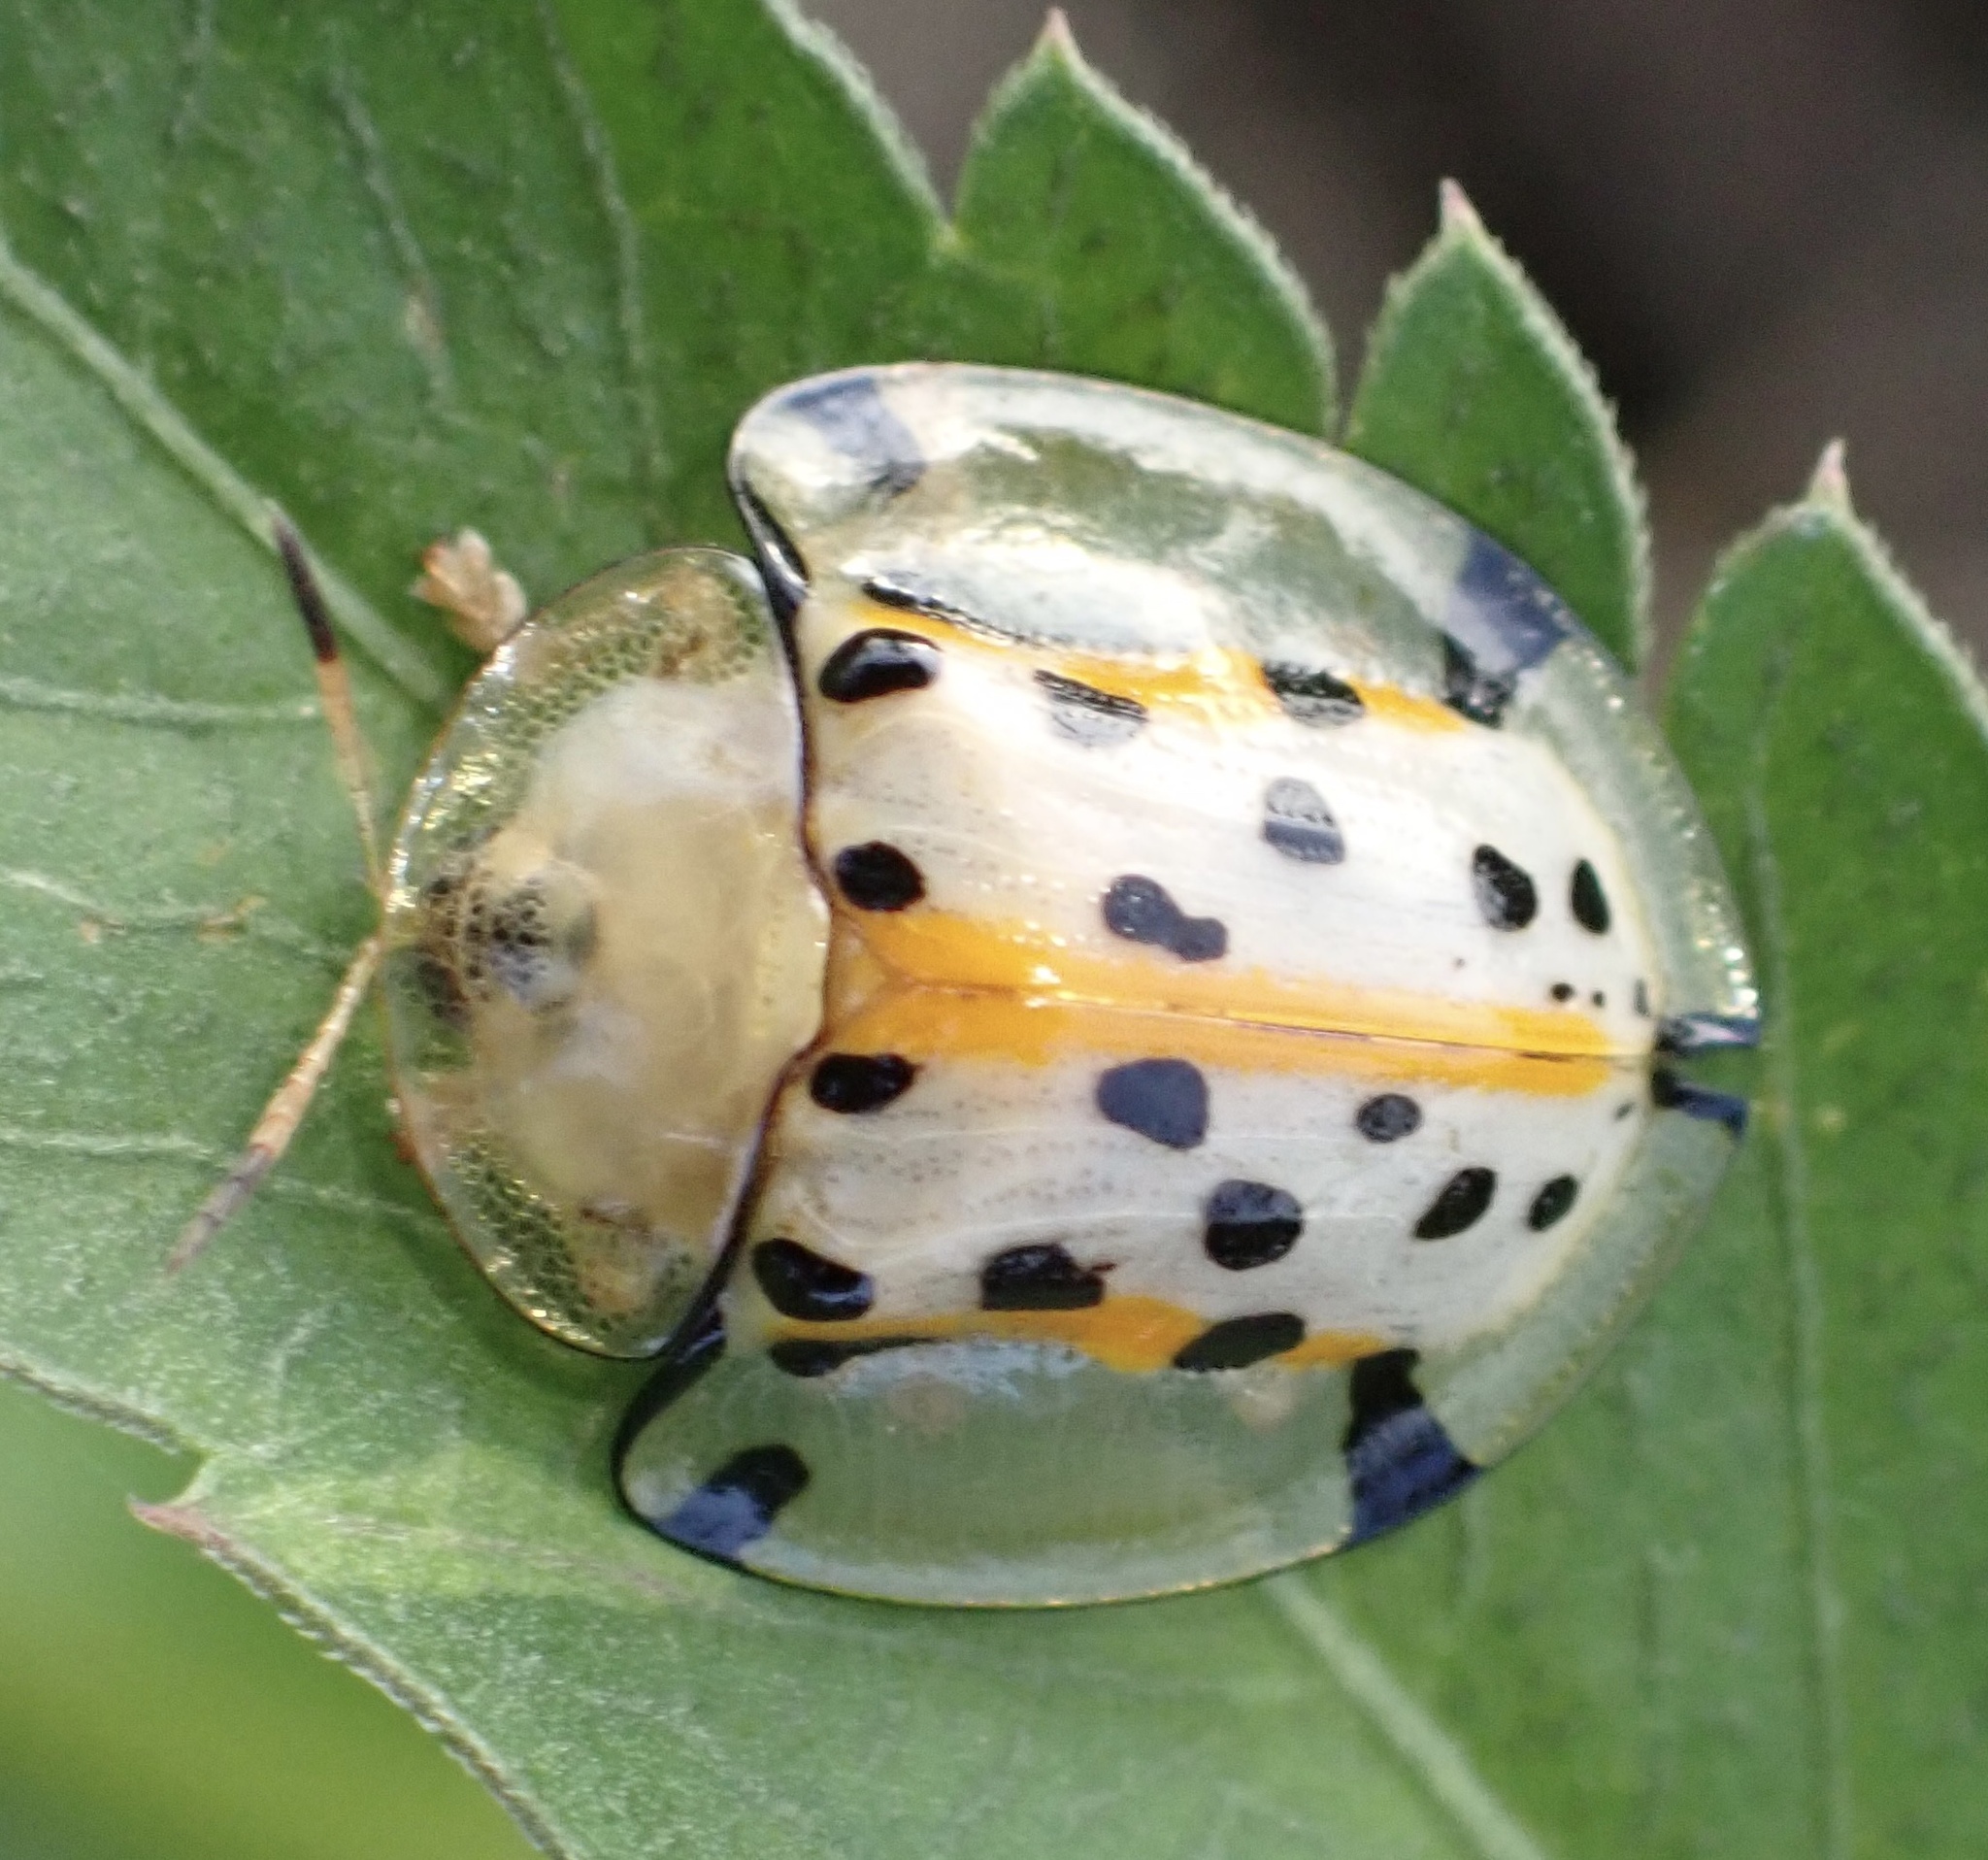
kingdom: Animalia
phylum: Arthropoda
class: Insecta
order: Coleoptera
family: Chrysomelidae
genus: Aspidimorpha
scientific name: Aspidimorpha miliaris
